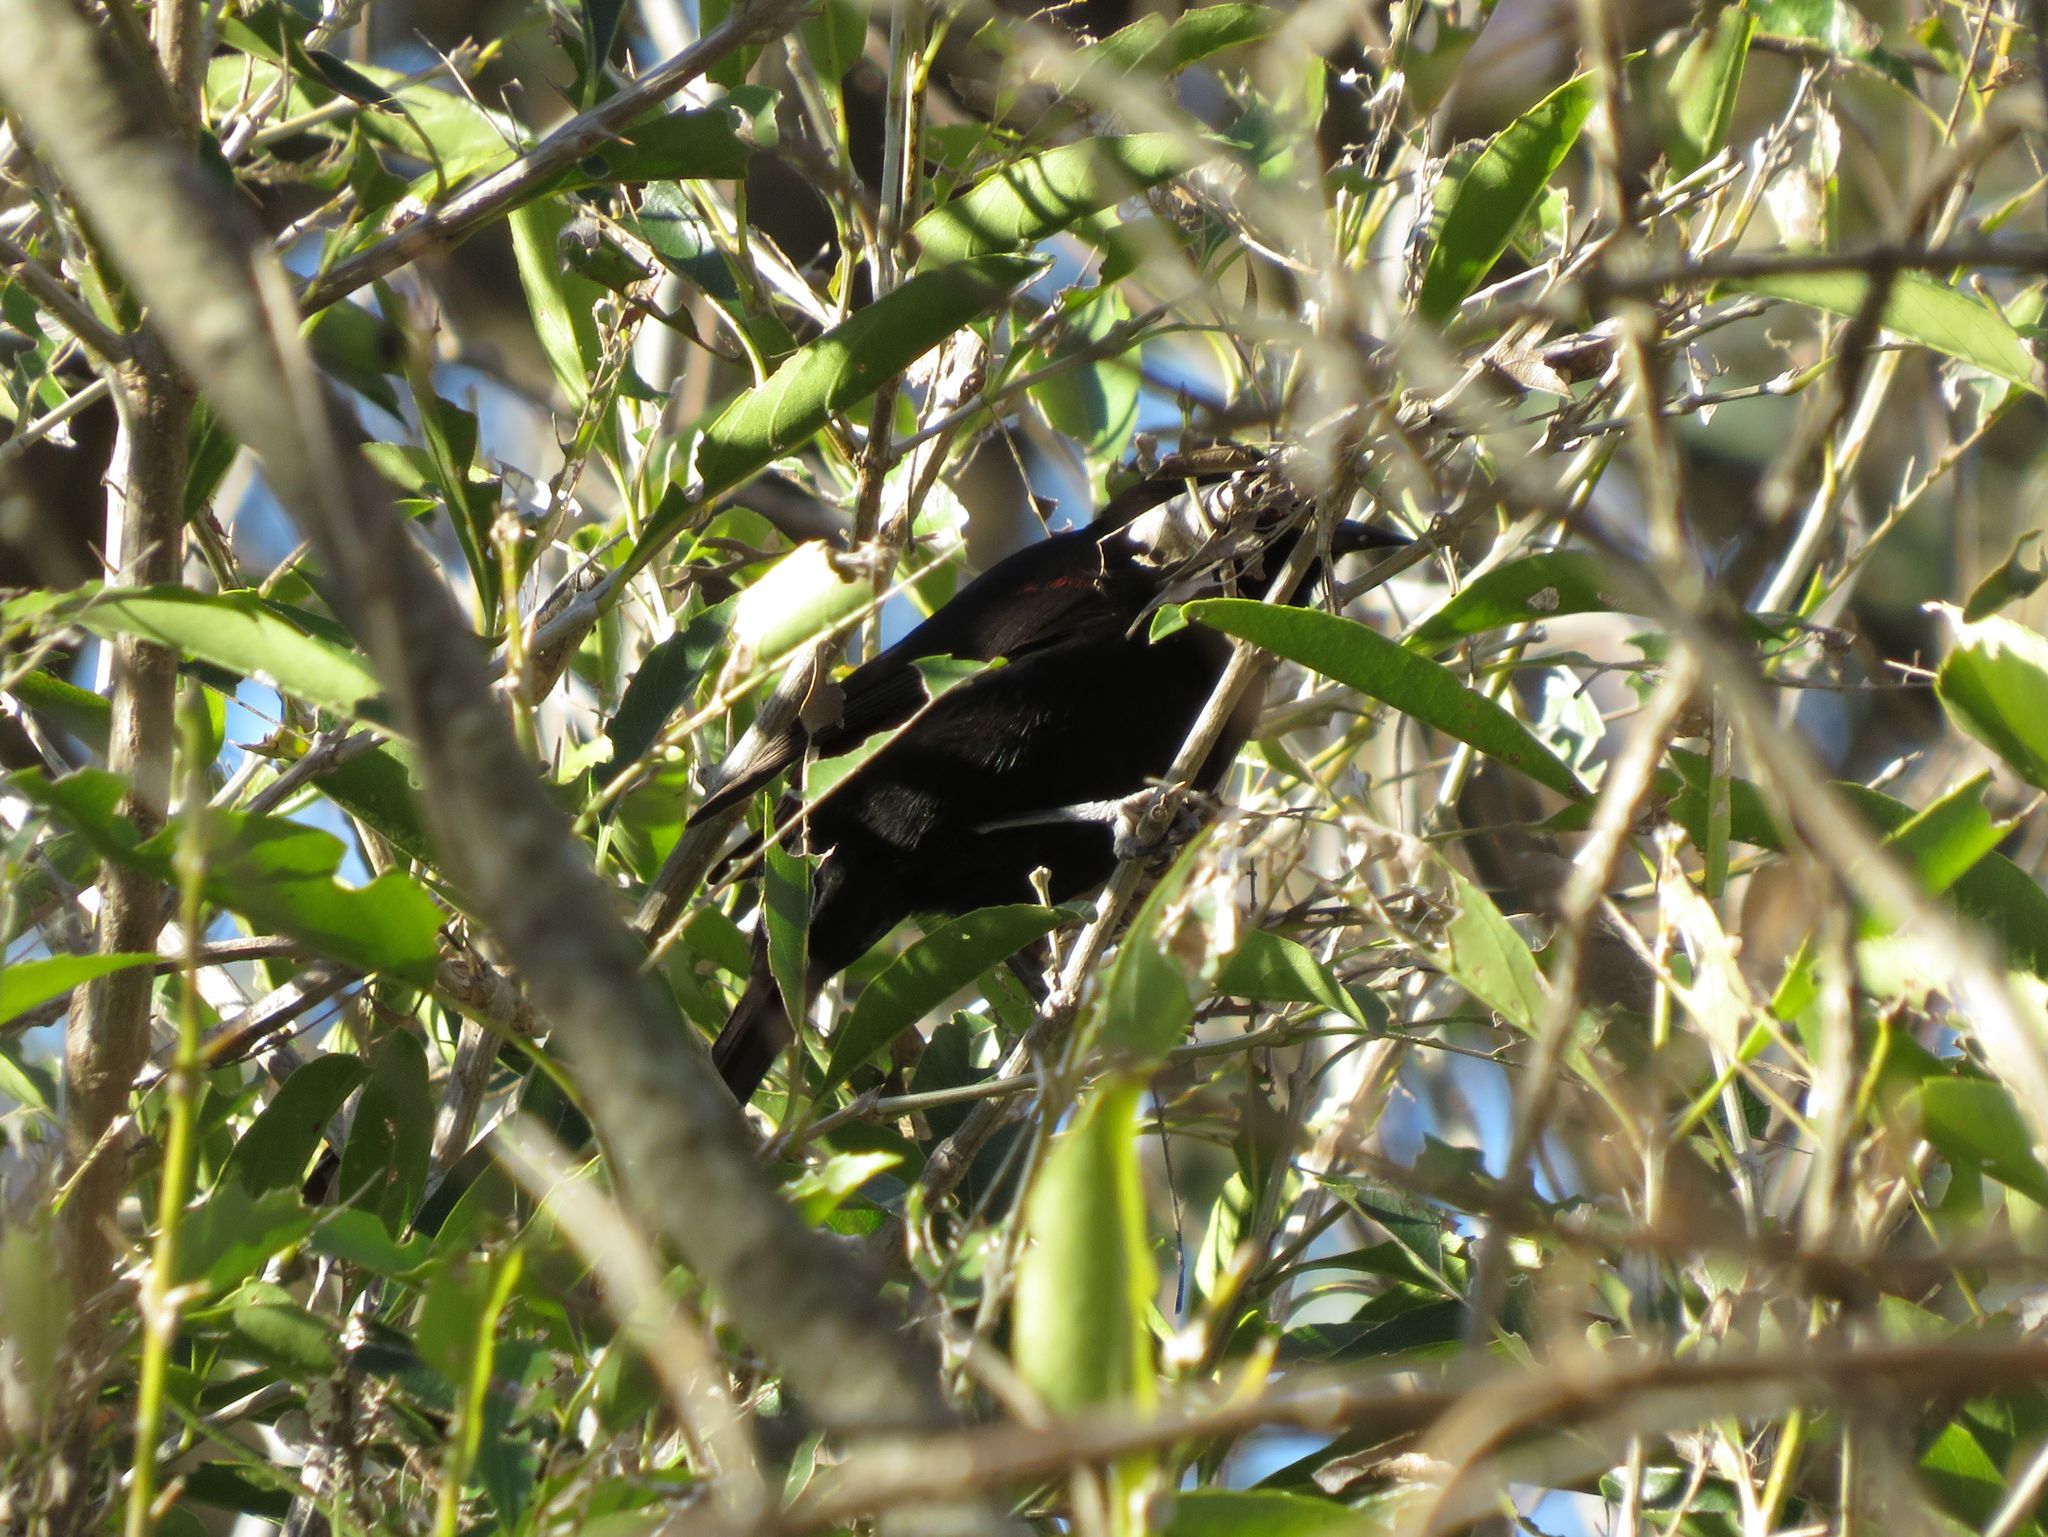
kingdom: Animalia
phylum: Chordata
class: Aves
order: Passeriformes
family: Icteridae
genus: Icterus
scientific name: Icterus cayanensis
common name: Epaulet oriole
